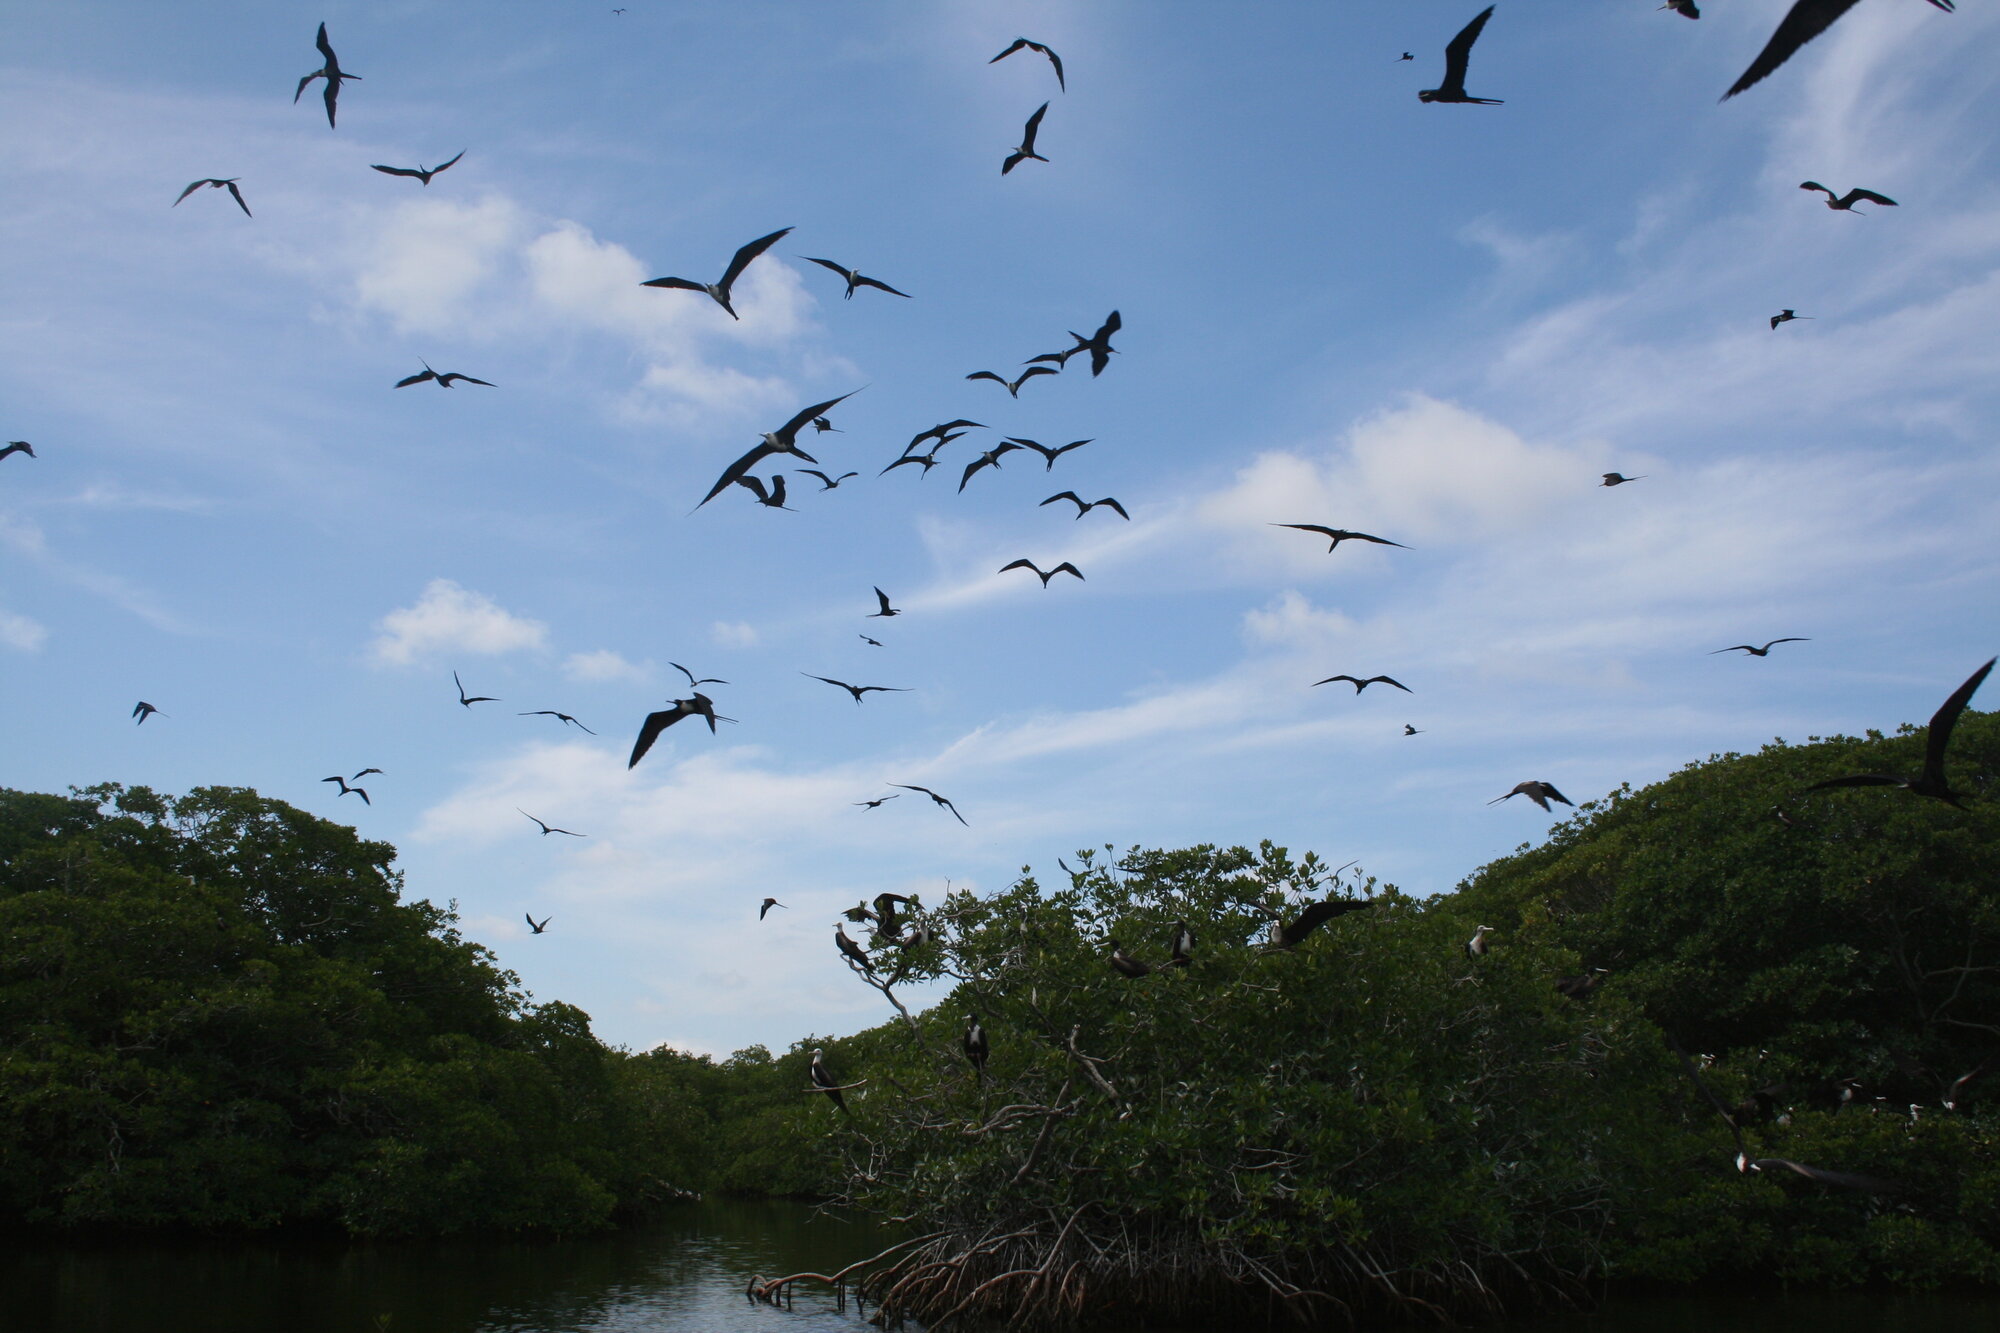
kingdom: Animalia
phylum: Chordata
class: Aves
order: Suliformes
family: Fregatidae
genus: Fregata
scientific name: Fregata magnificens
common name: Magnificent frigatebird
